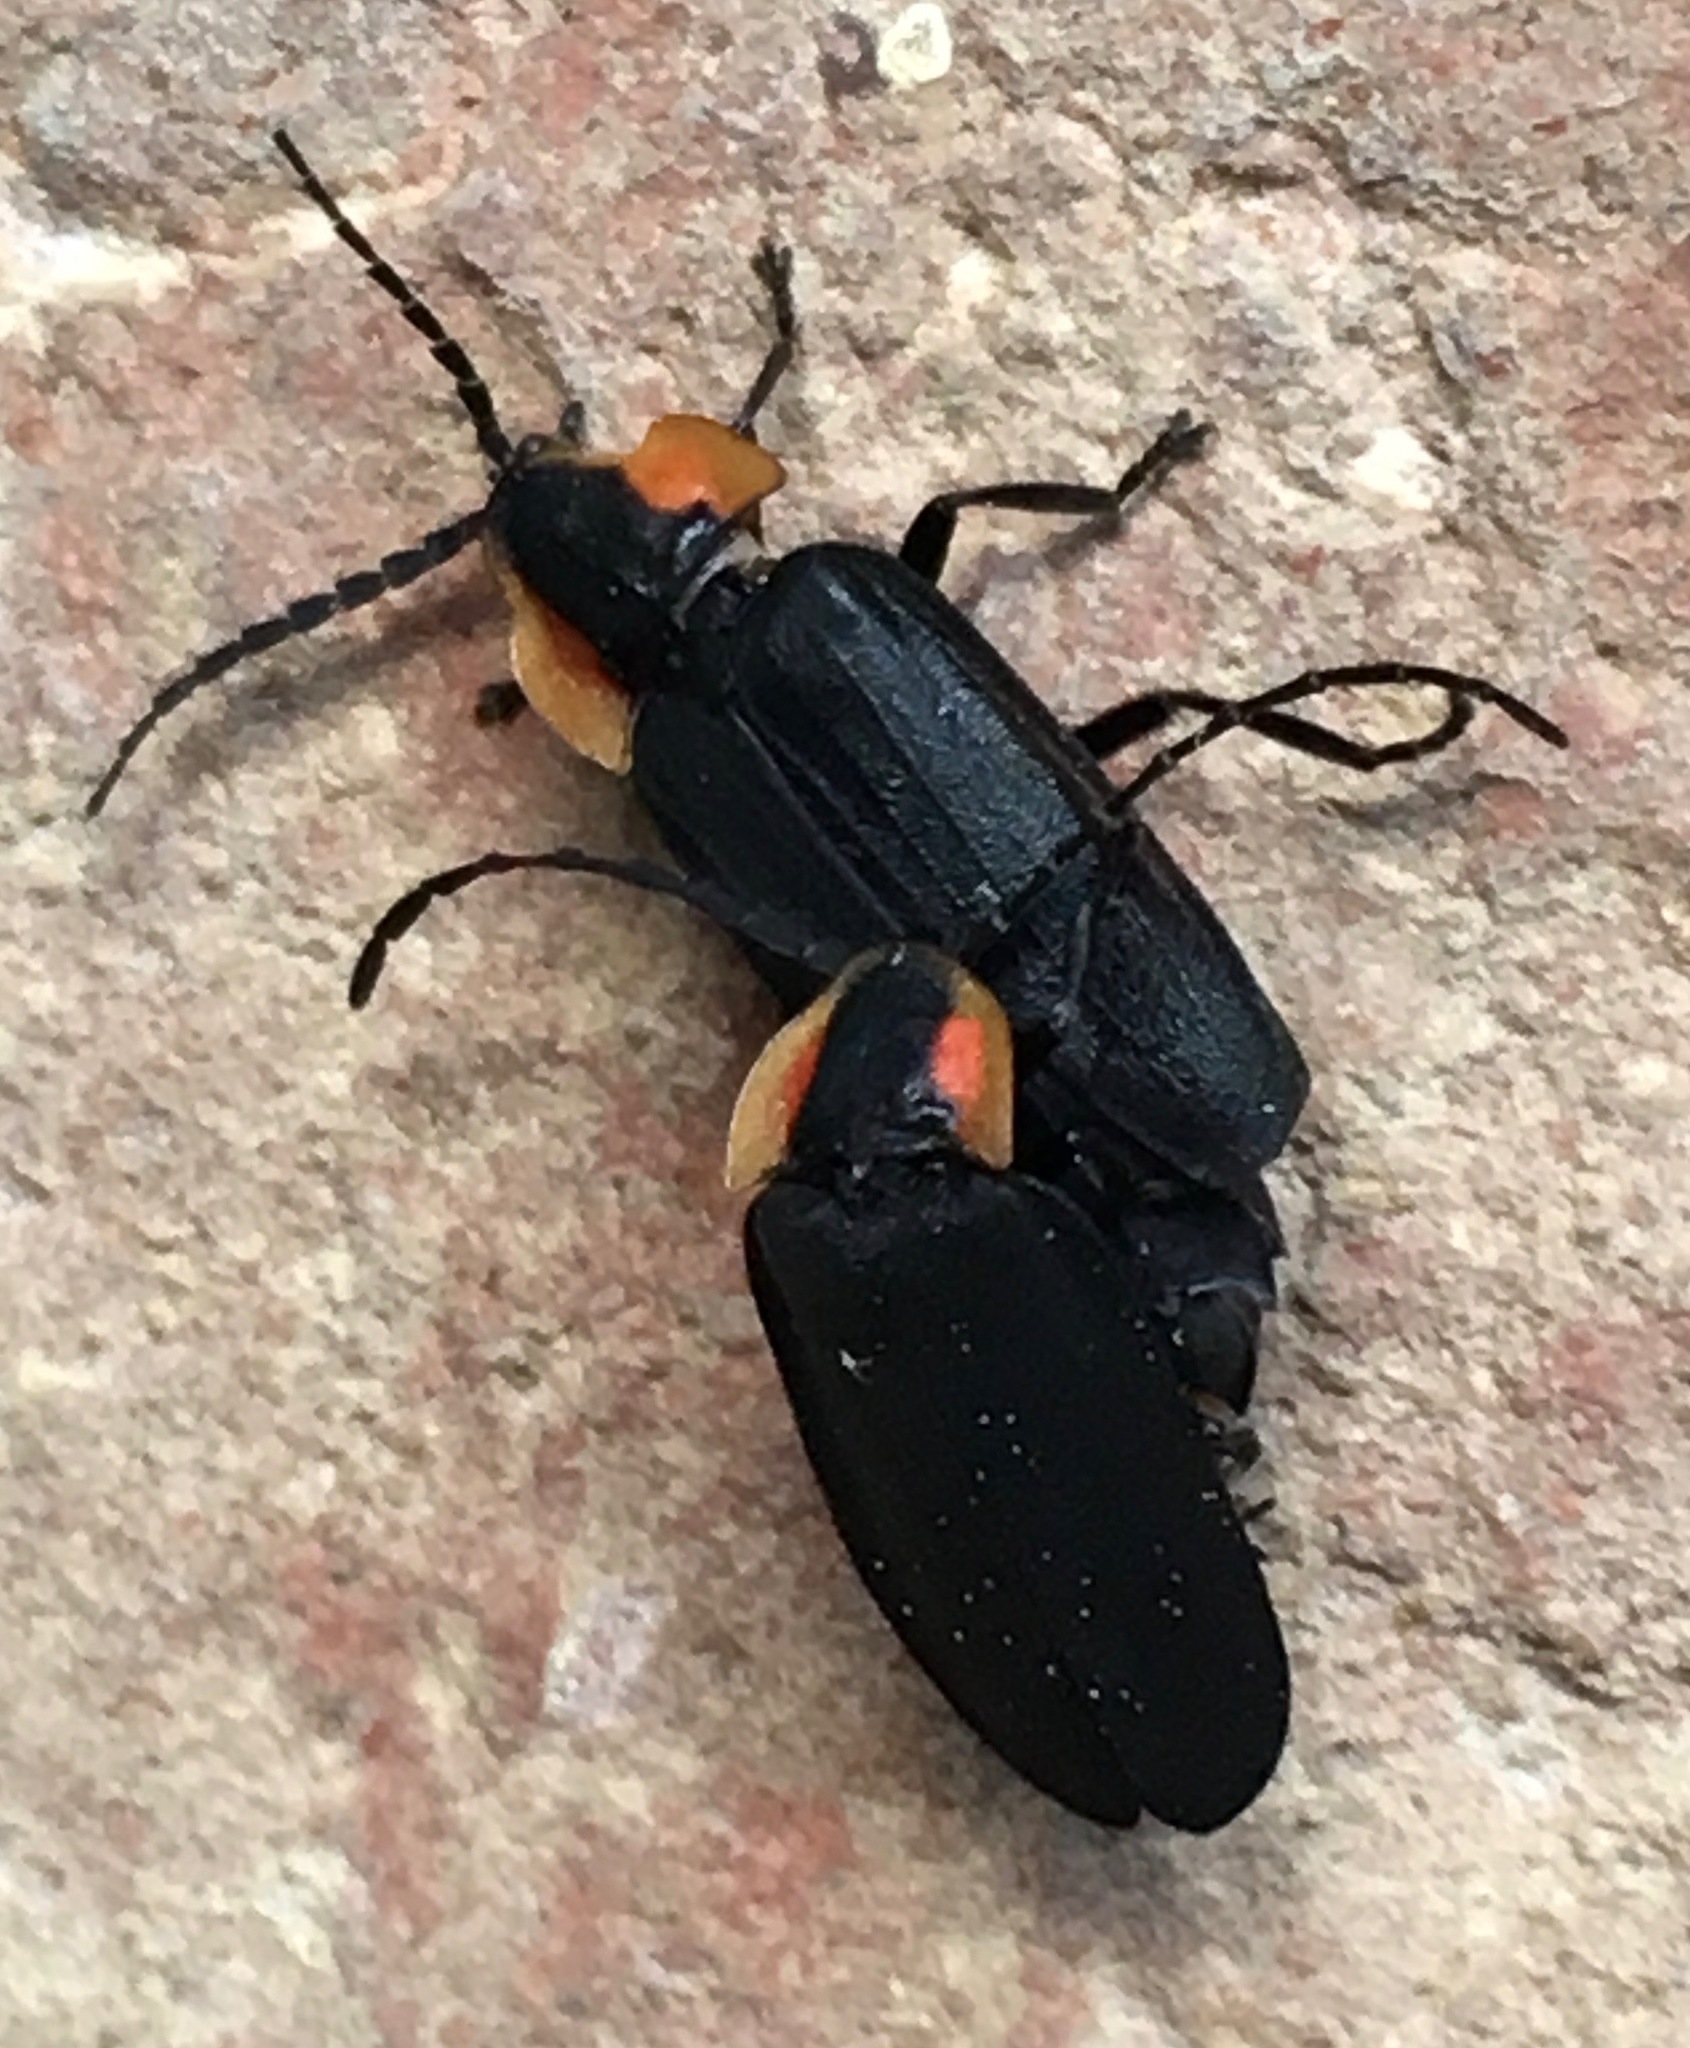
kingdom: Animalia
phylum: Arthropoda
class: Insecta
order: Coleoptera
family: Lampyridae
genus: Lucidota
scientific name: Lucidota atra
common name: Black firefly
